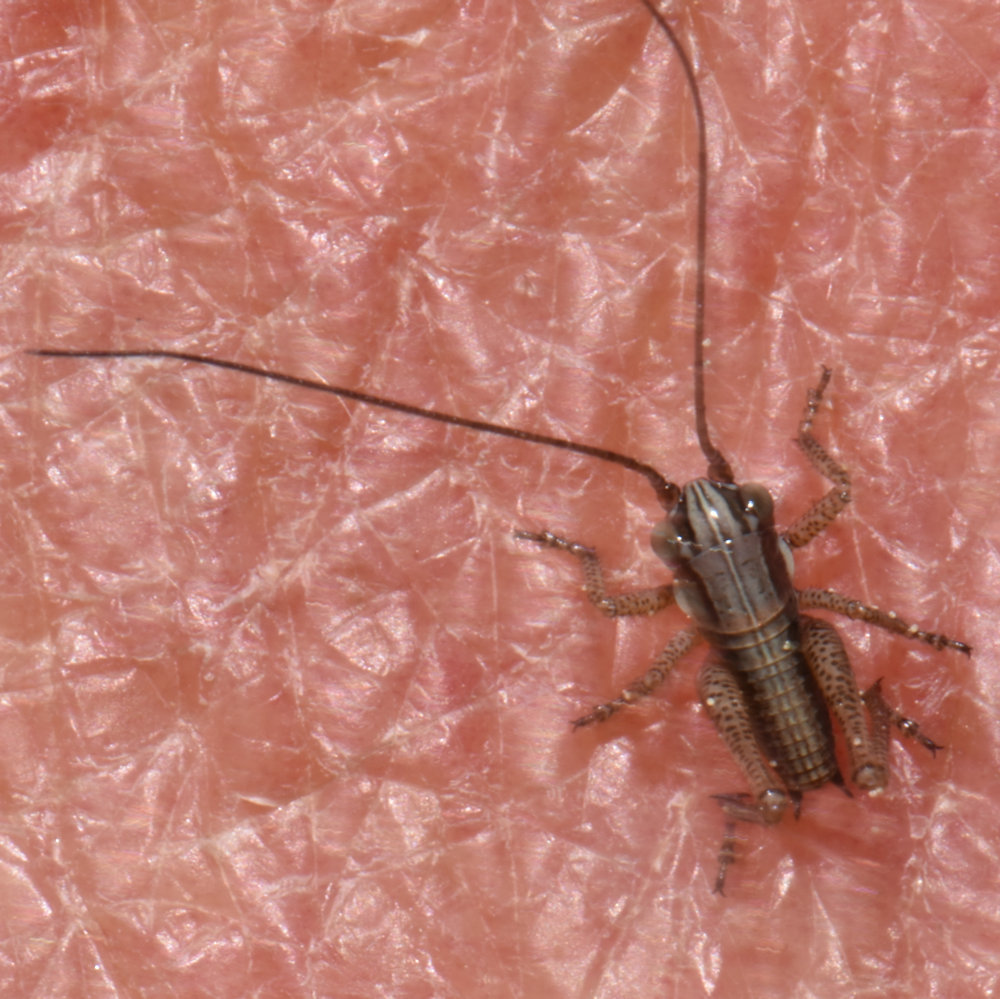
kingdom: Animalia
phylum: Arthropoda
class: Insecta
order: Orthoptera
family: Tettigoniidae
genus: Roeseliana
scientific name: Roeseliana roeselii
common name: Roesel's bush cricket
